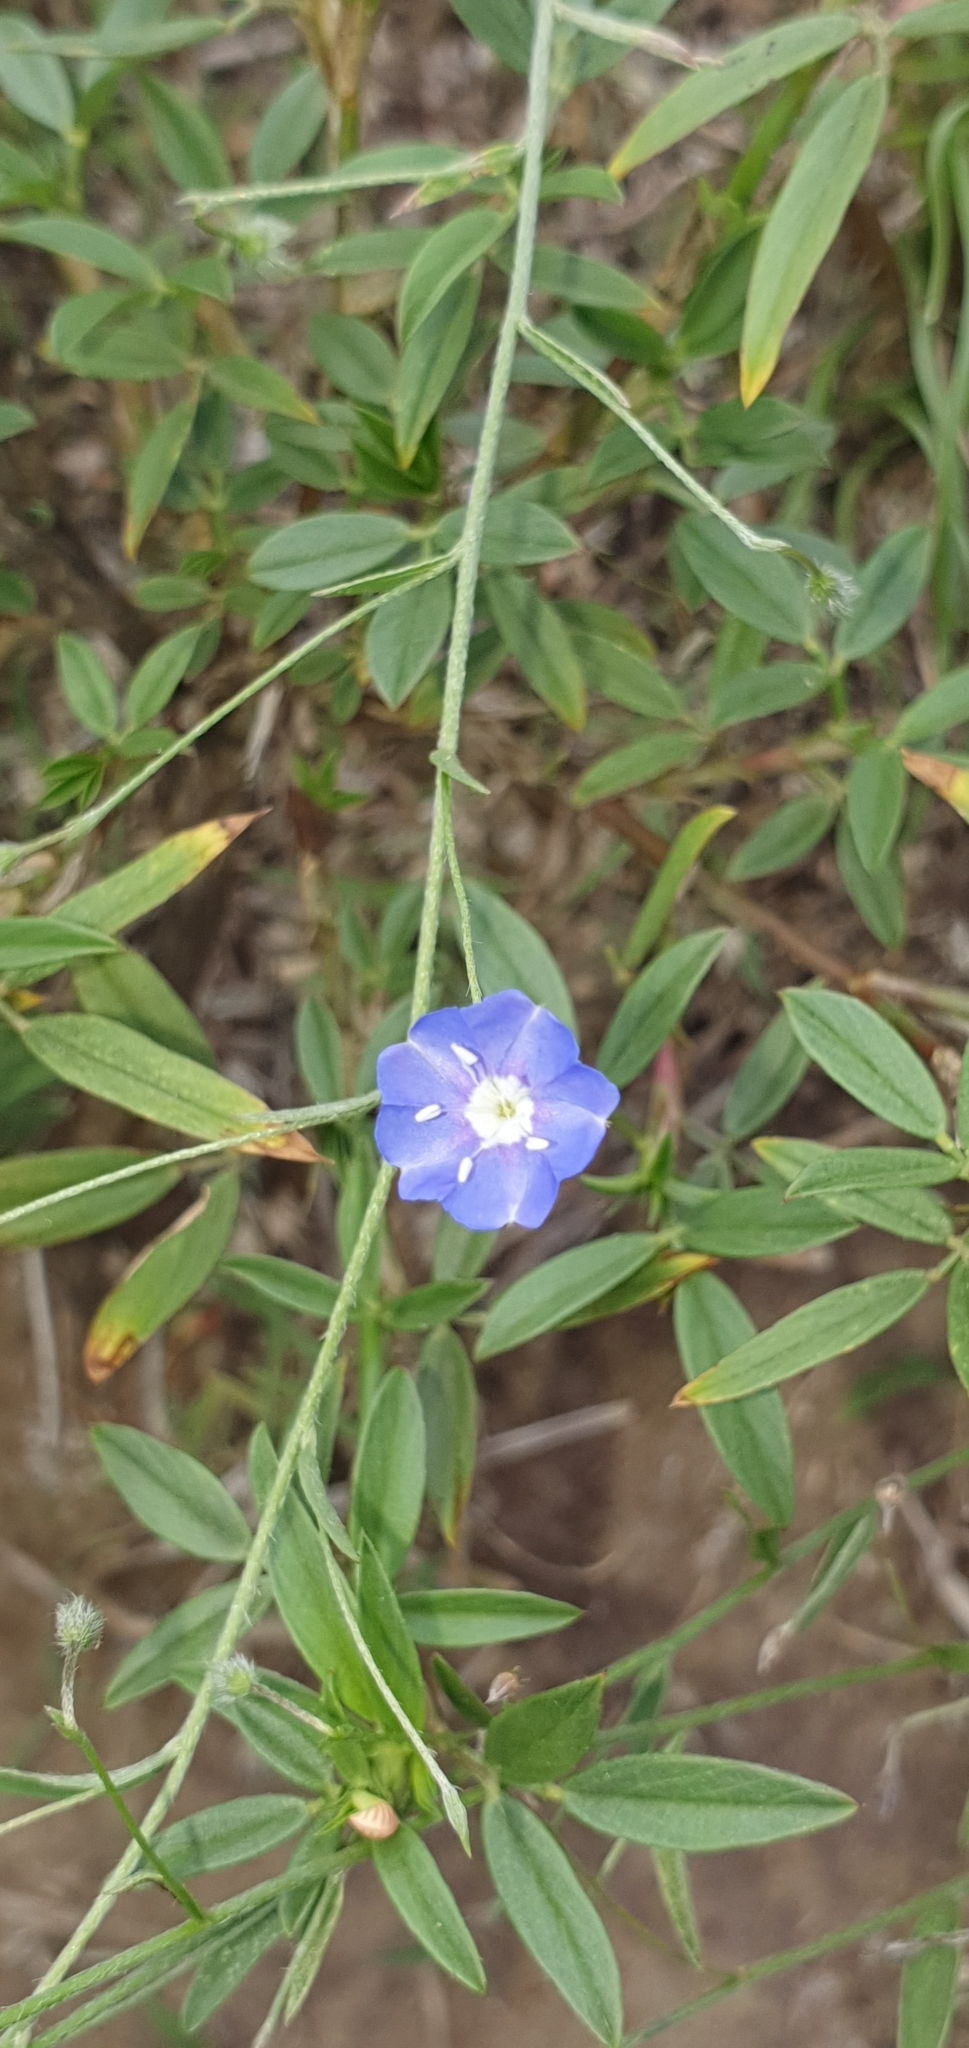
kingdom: Plantae
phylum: Tracheophyta
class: Magnoliopsida
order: Solanales
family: Convolvulaceae
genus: Evolvulus
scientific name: Evolvulus alsinoides
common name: Slender dwarf morning-glory
